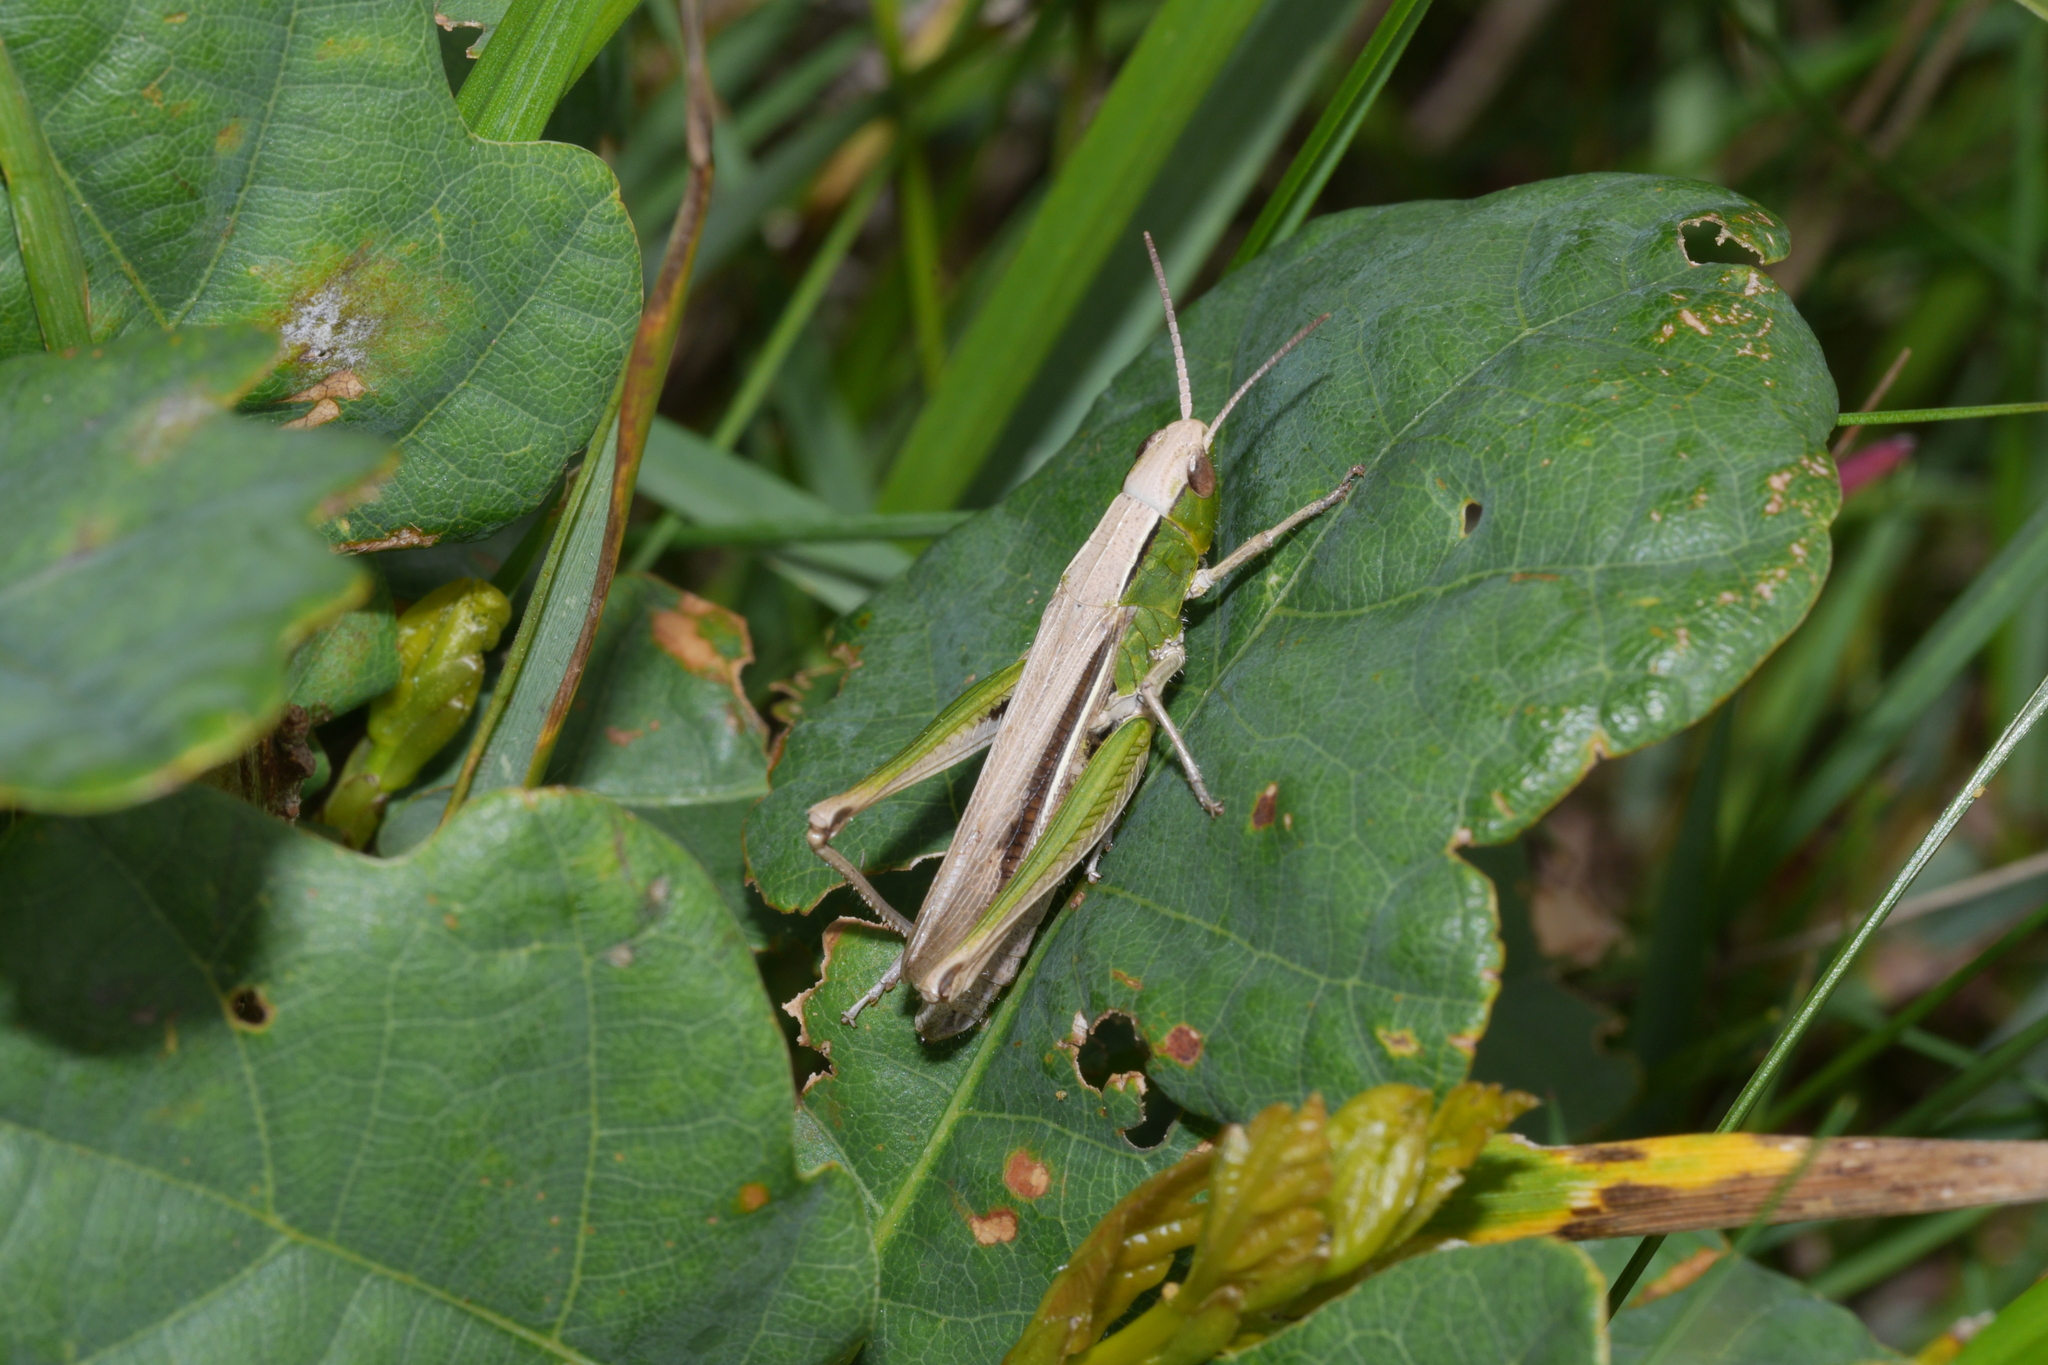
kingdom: Animalia
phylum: Arthropoda
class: Insecta
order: Orthoptera
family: Acrididae
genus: Chorthippus
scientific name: Chorthippus albomarginatus
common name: Lesser marsh grasshopper
